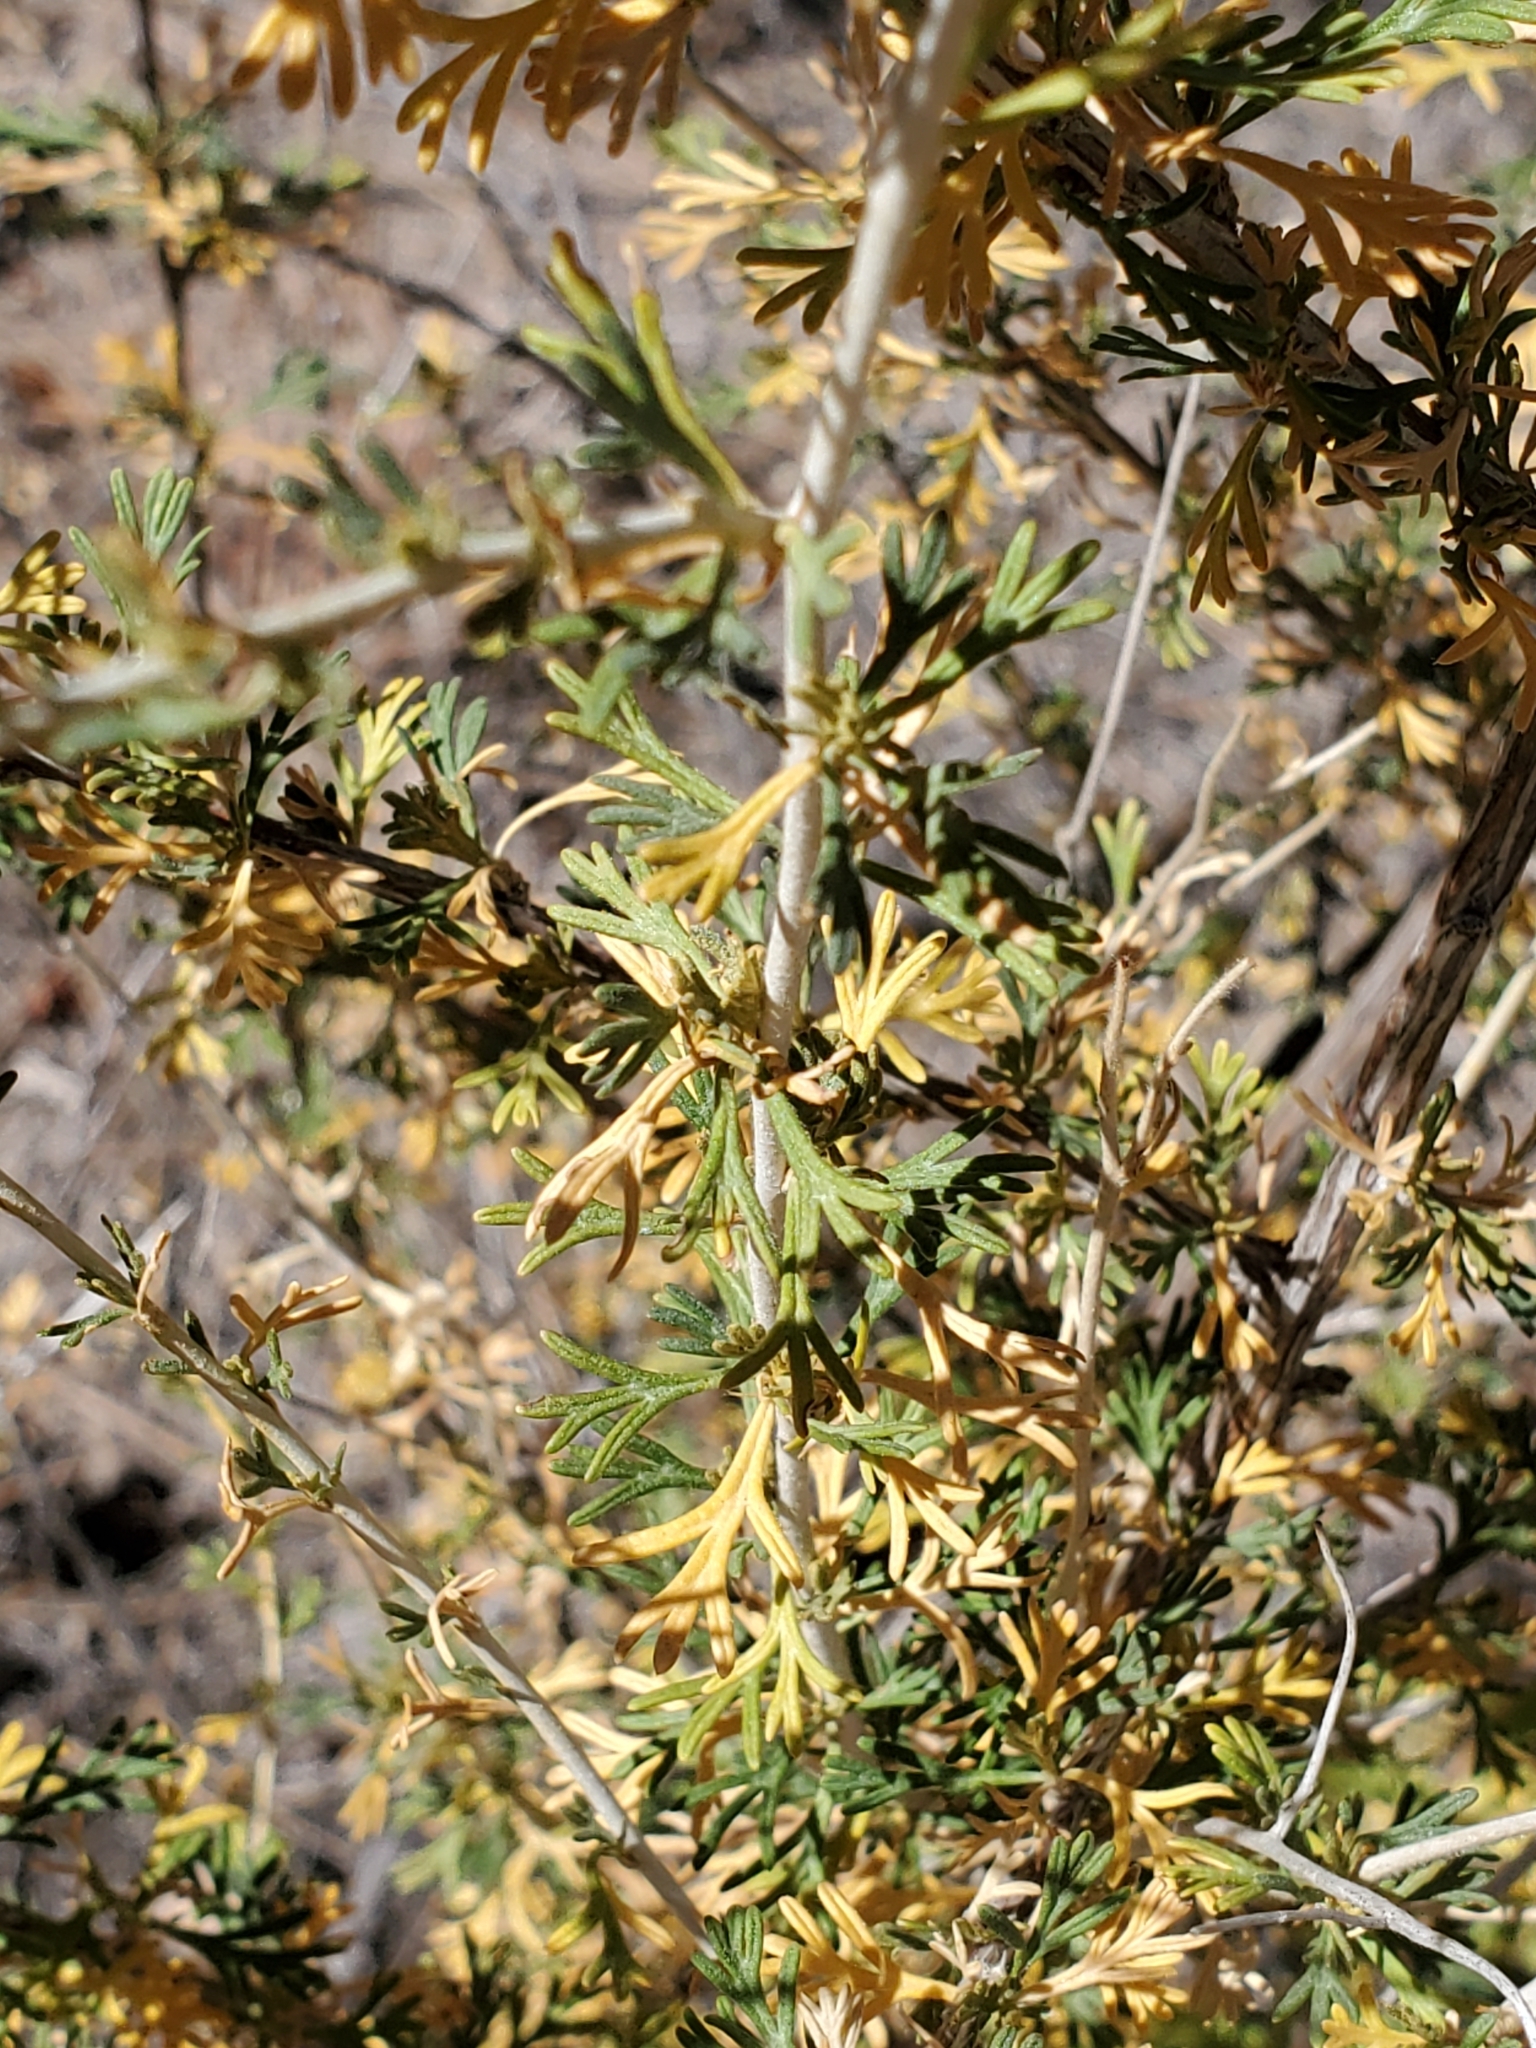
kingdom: Plantae
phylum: Tracheophyta
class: Magnoliopsida
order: Rosales
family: Rosaceae
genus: Fallugia
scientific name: Fallugia paradoxa
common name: Apache-plume
